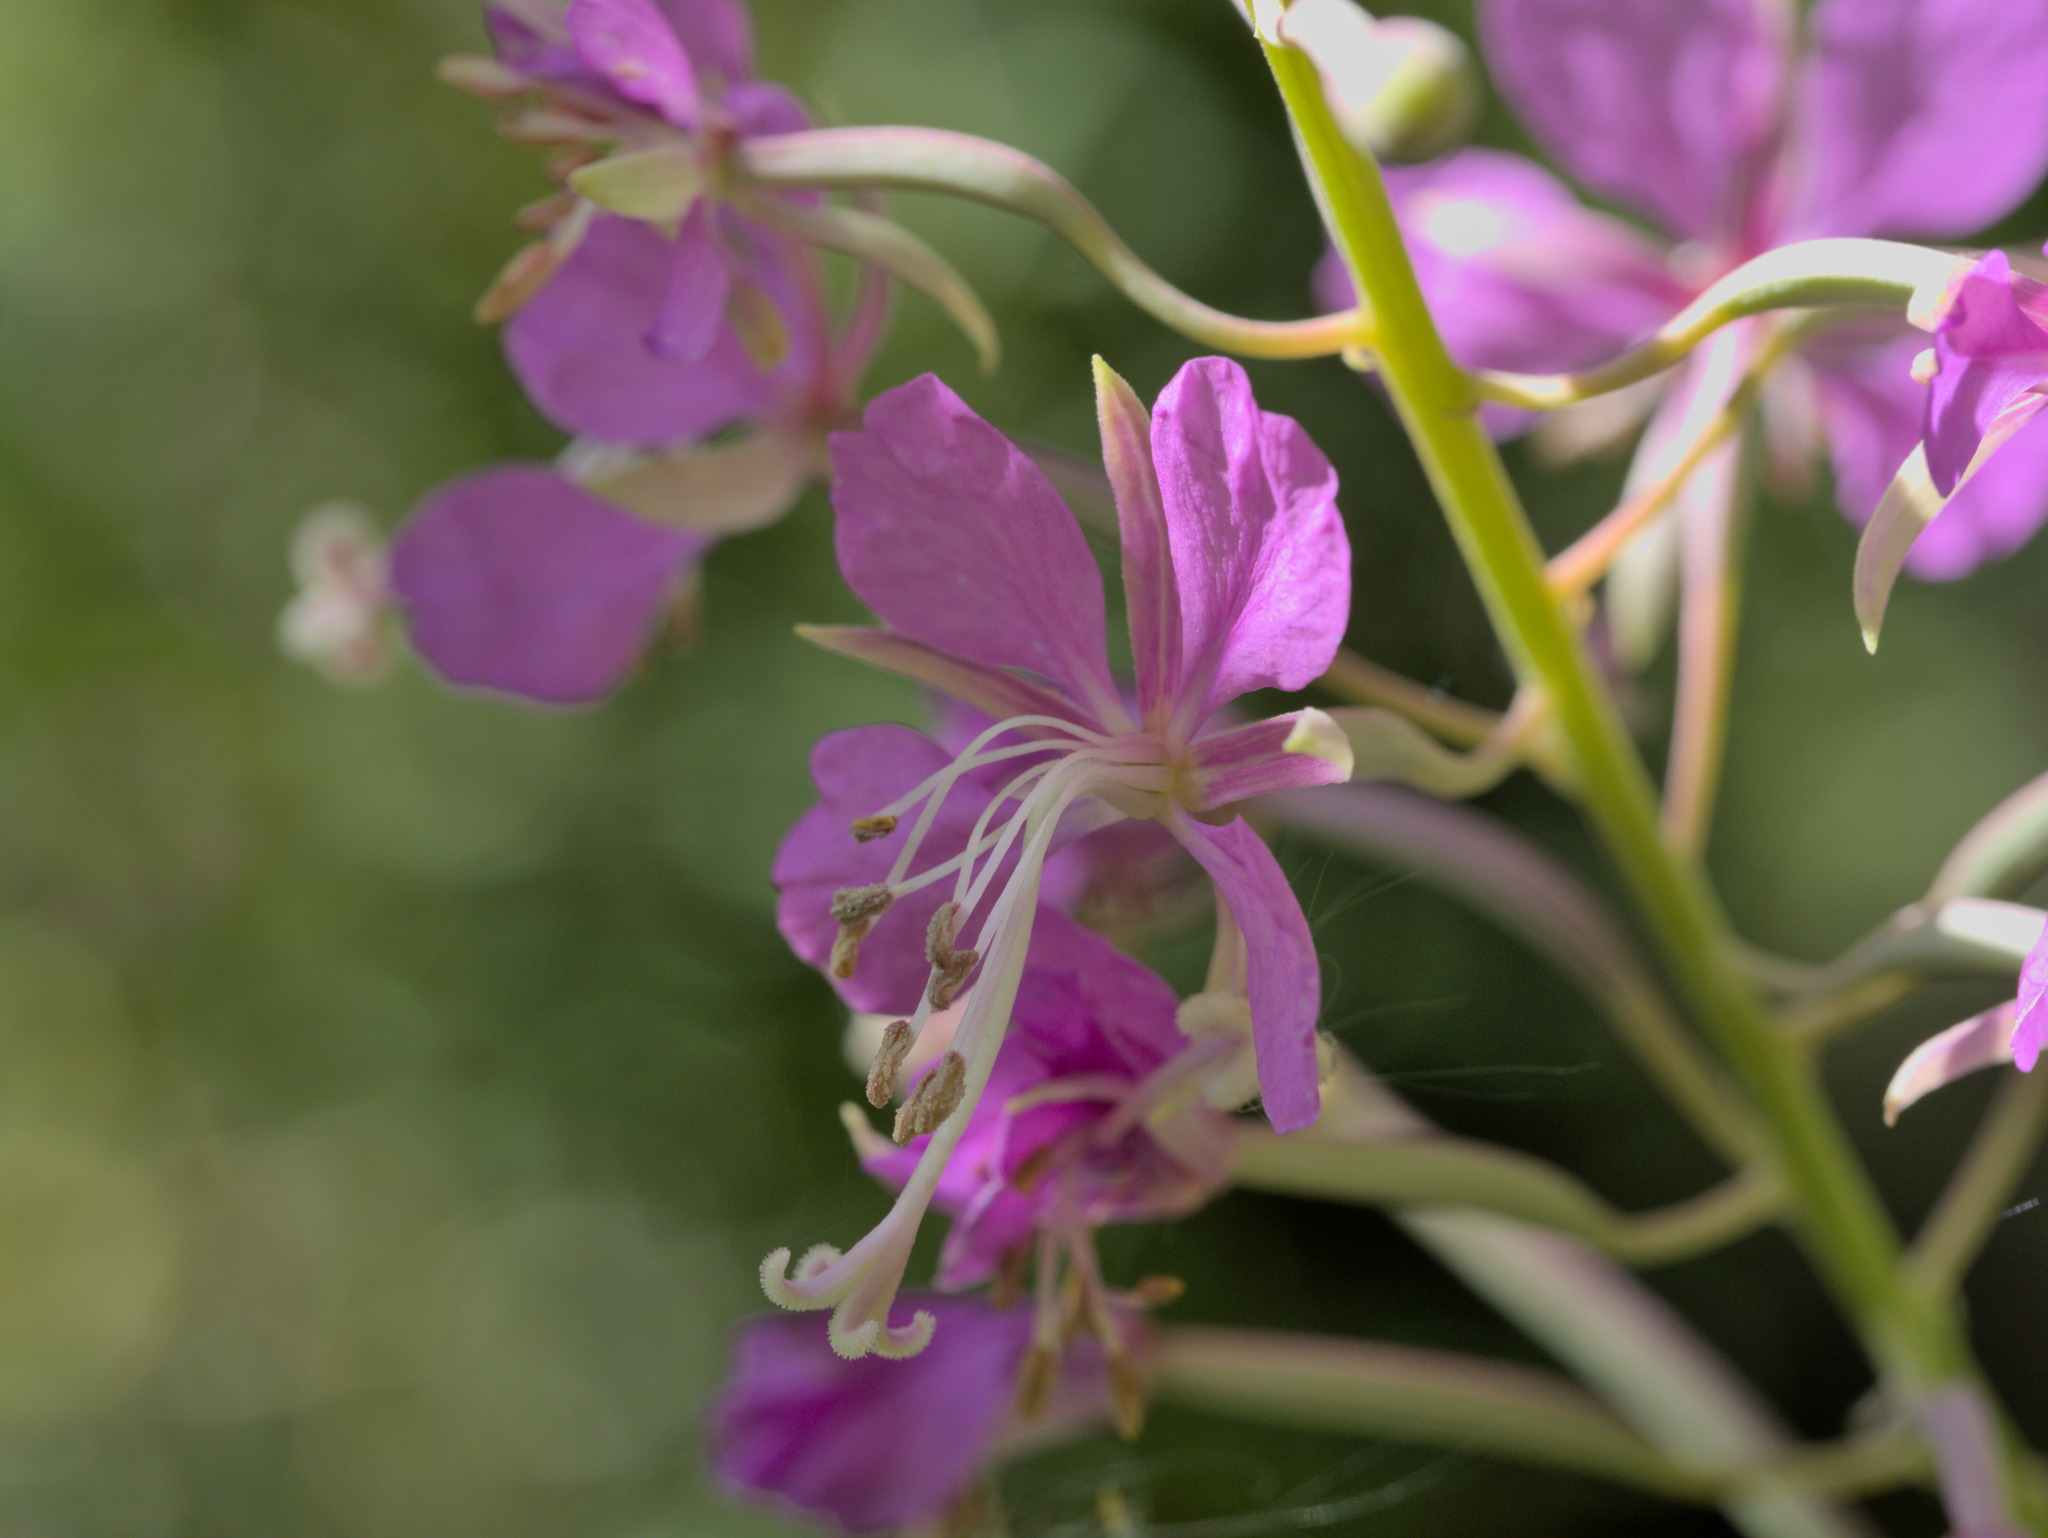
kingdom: Plantae
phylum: Tracheophyta
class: Magnoliopsida
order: Myrtales
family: Onagraceae
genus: Chamaenerion
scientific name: Chamaenerion angustifolium
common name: Fireweed
